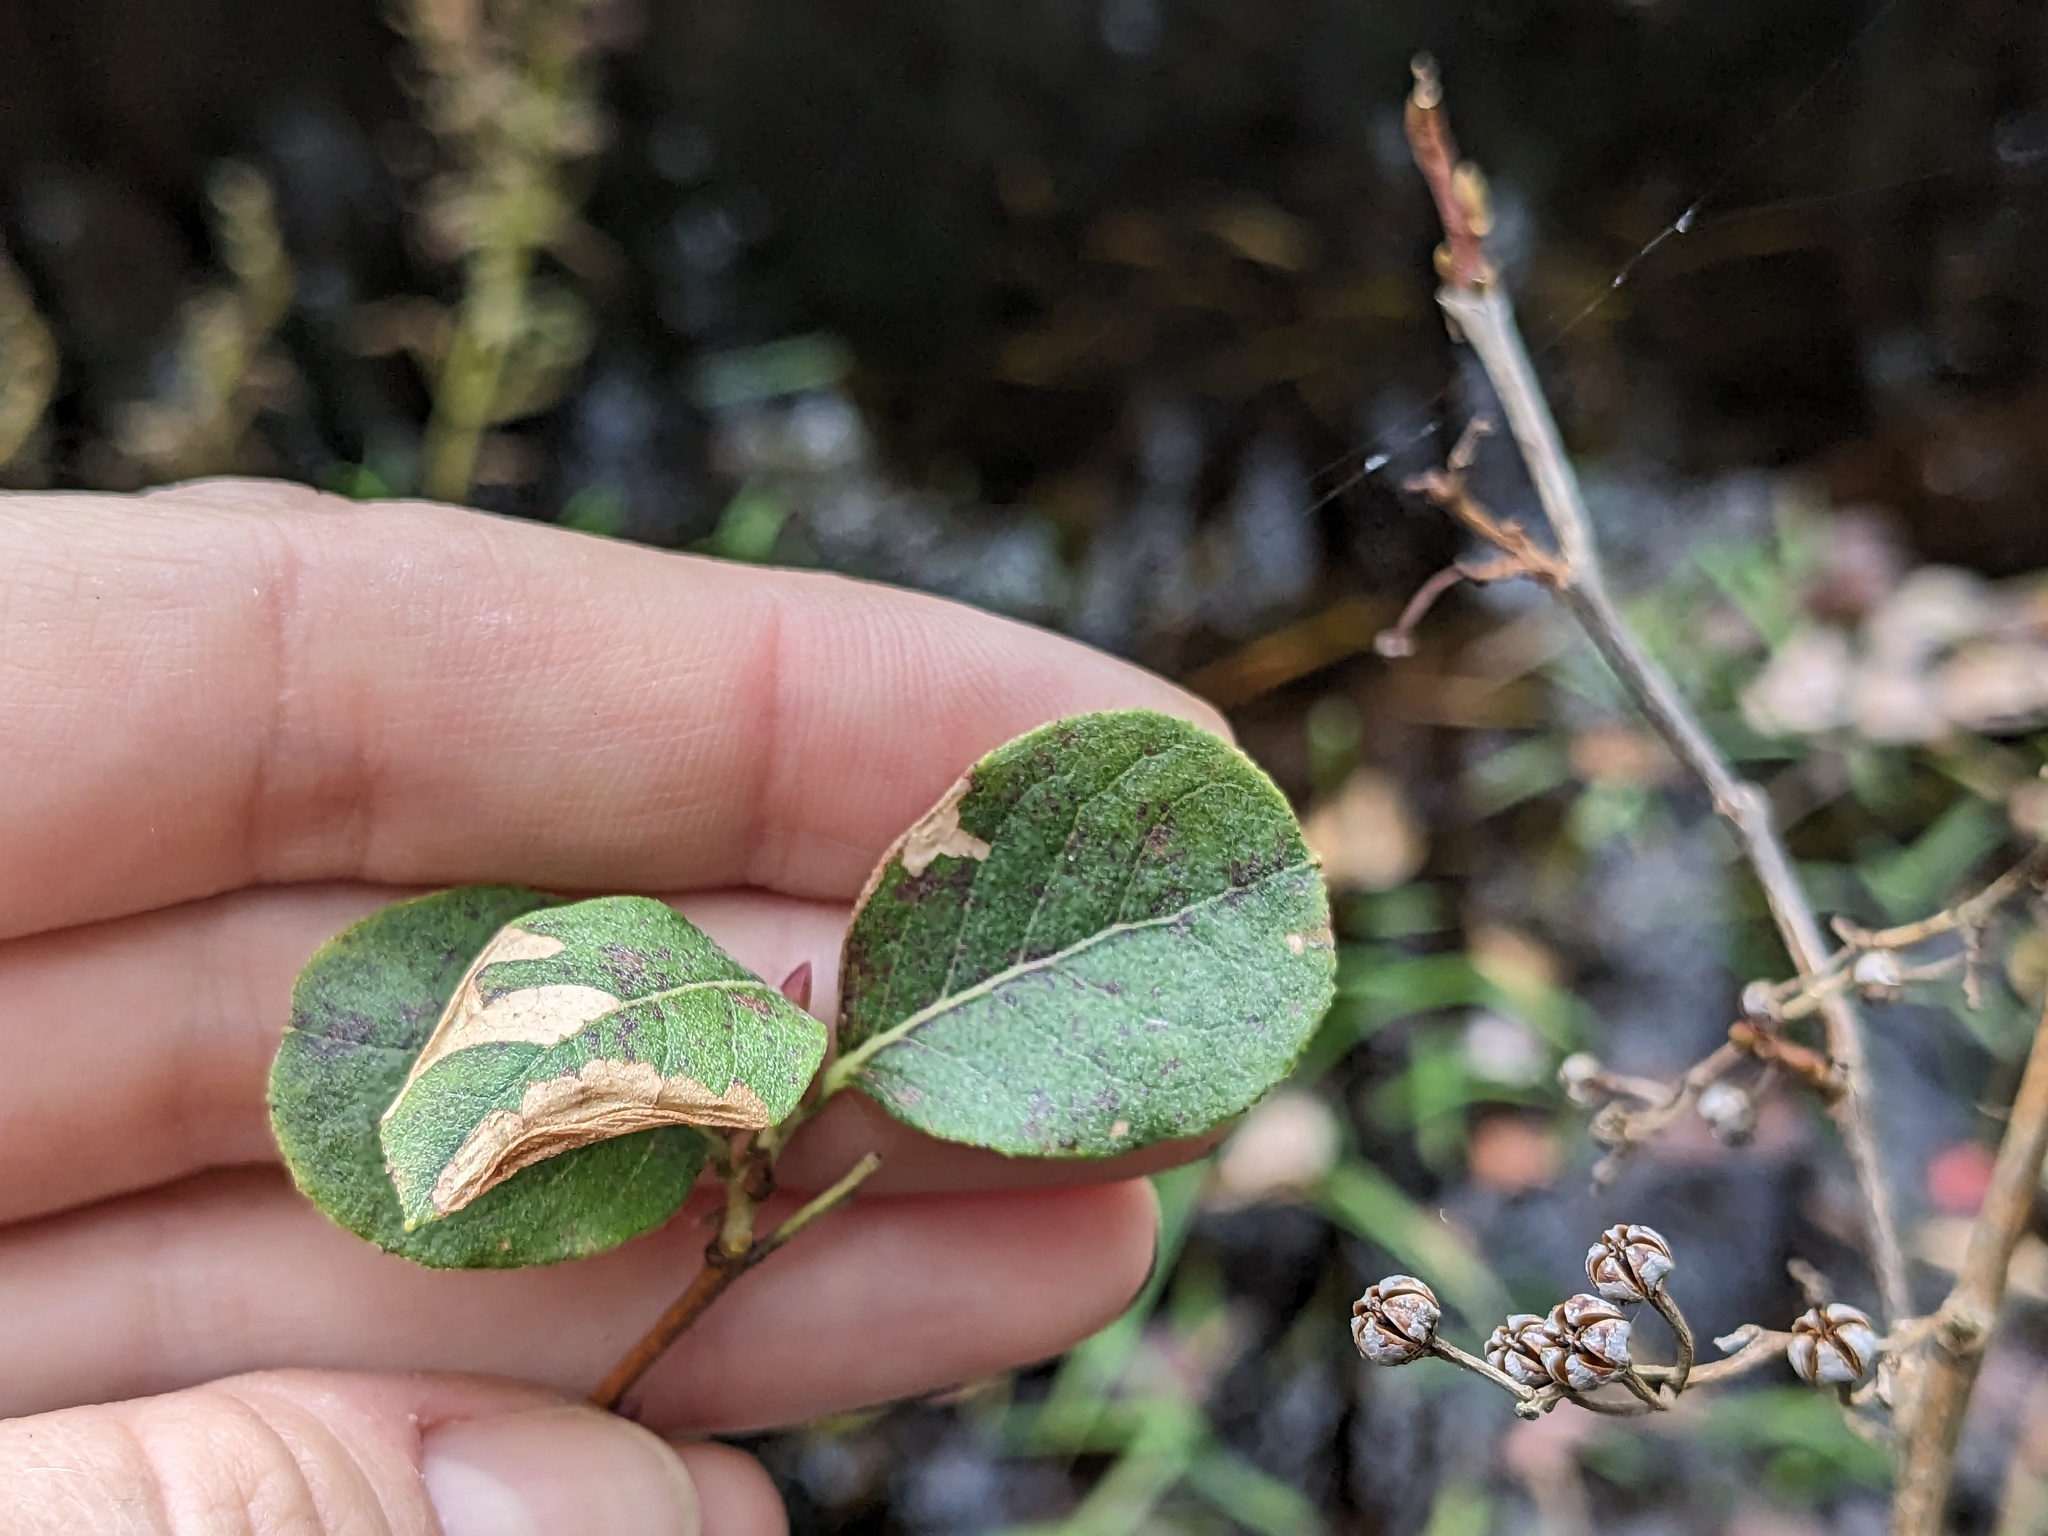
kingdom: Plantae
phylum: Tracheophyta
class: Magnoliopsida
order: Ericales
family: Ericaceae
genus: Lyonia
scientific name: Lyonia ligustrina
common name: Maleberry
